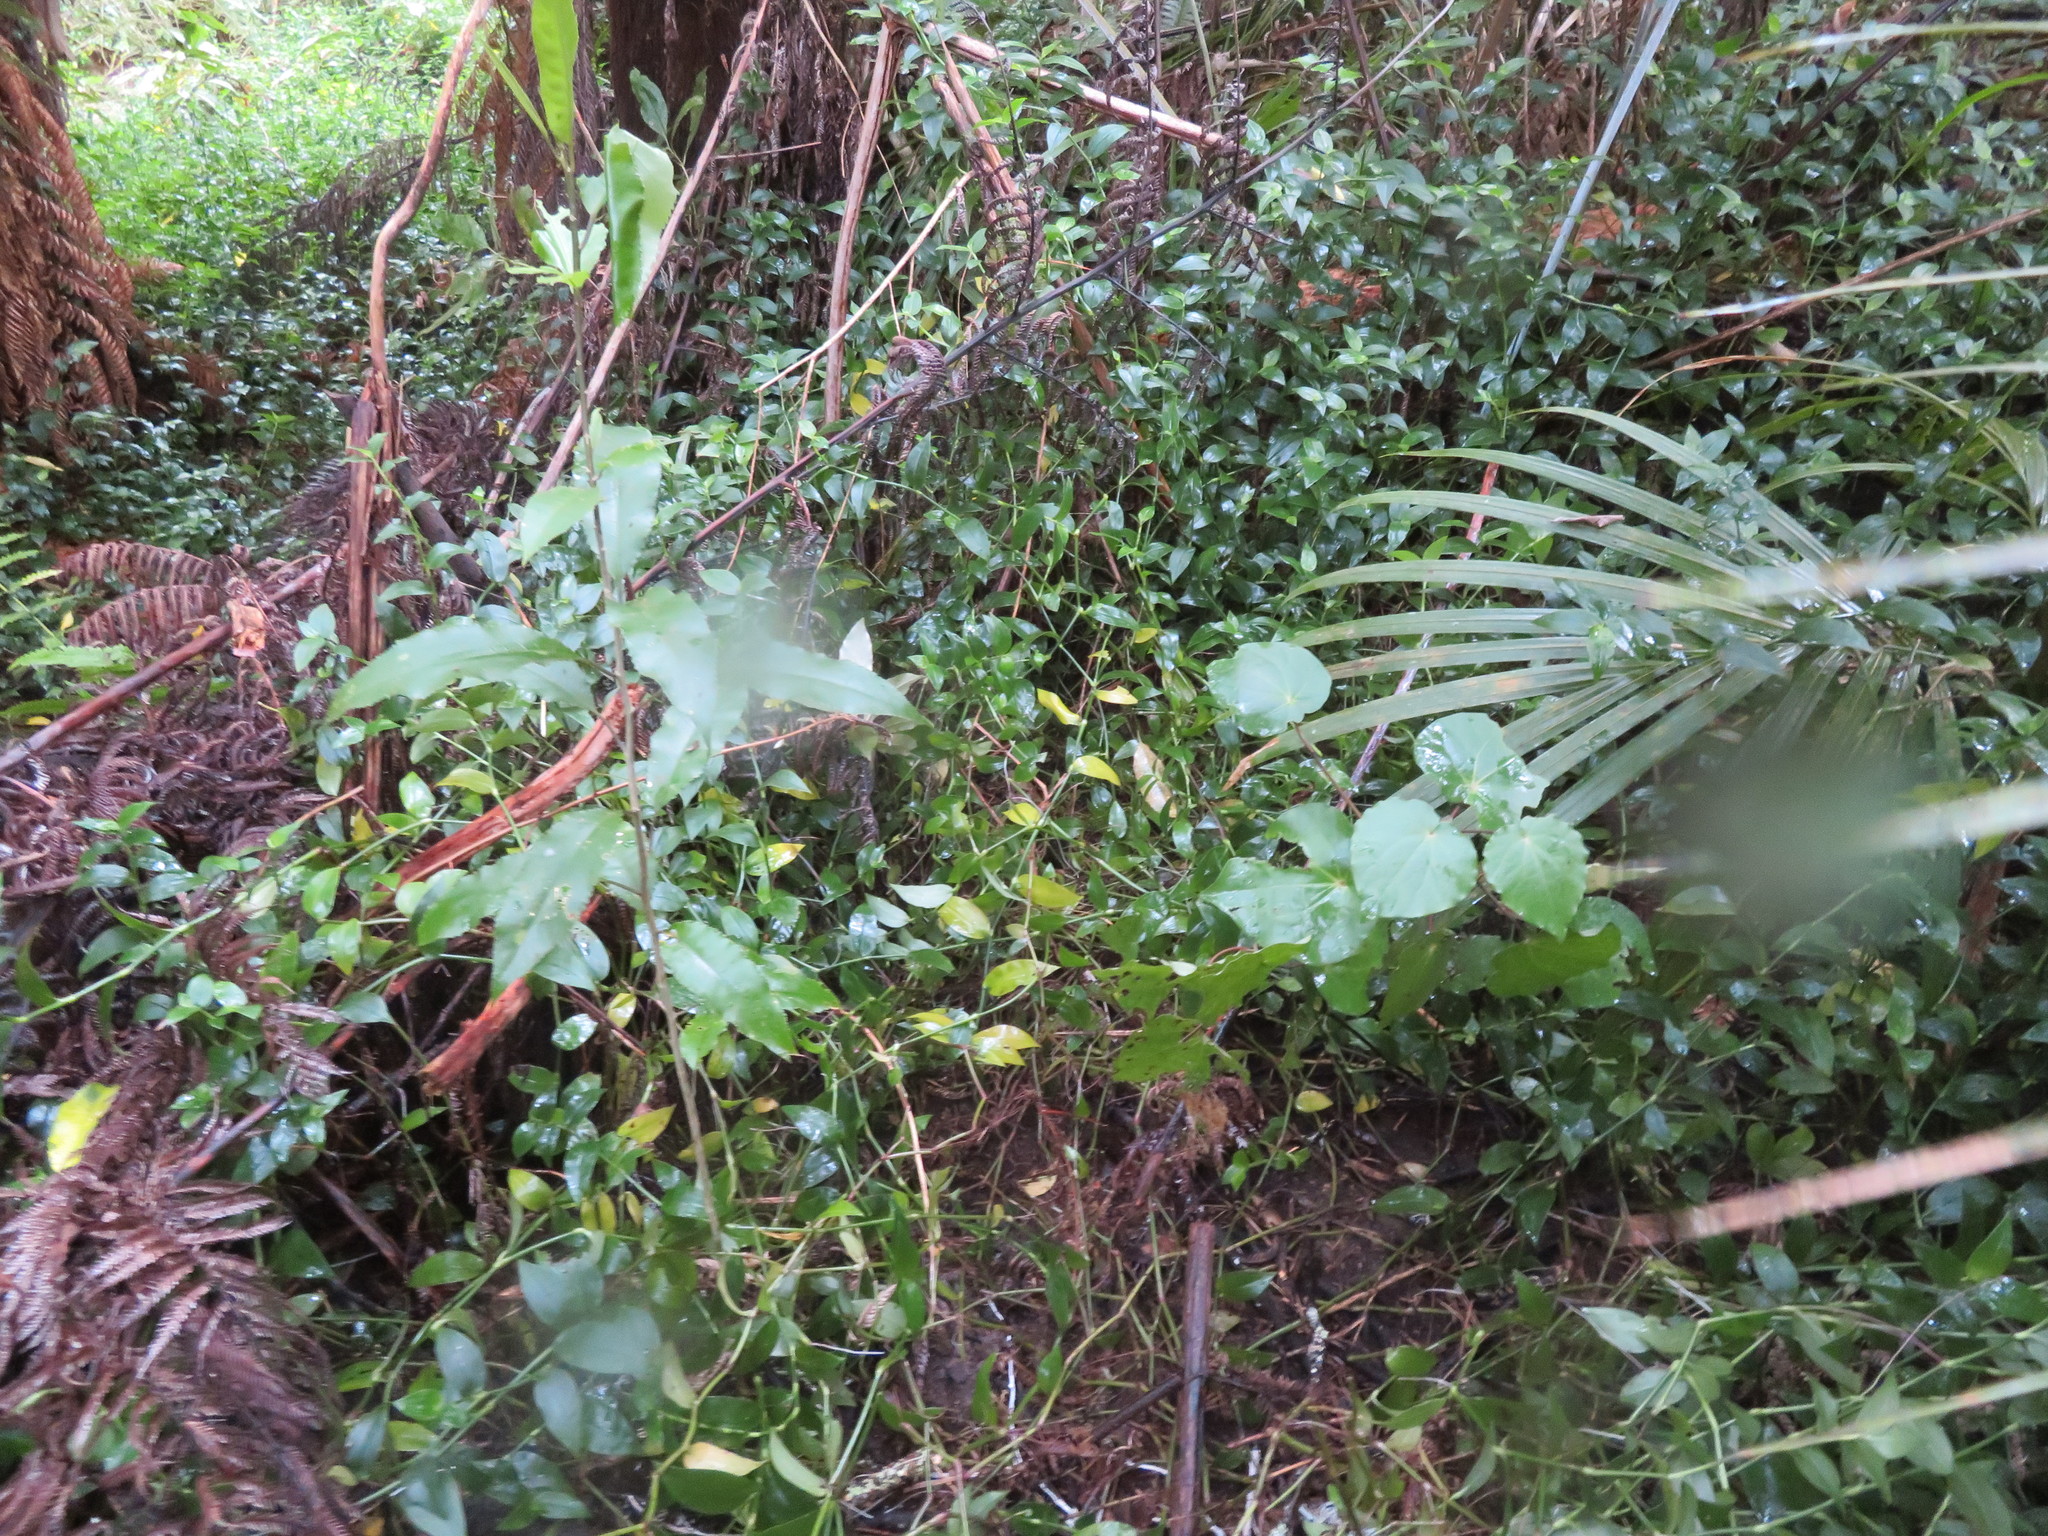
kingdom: Plantae
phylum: Tracheophyta
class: Magnoliopsida
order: Malpighiales
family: Violaceae
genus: Melicytus
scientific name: Melicytus ramiflorus
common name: Mahoe
